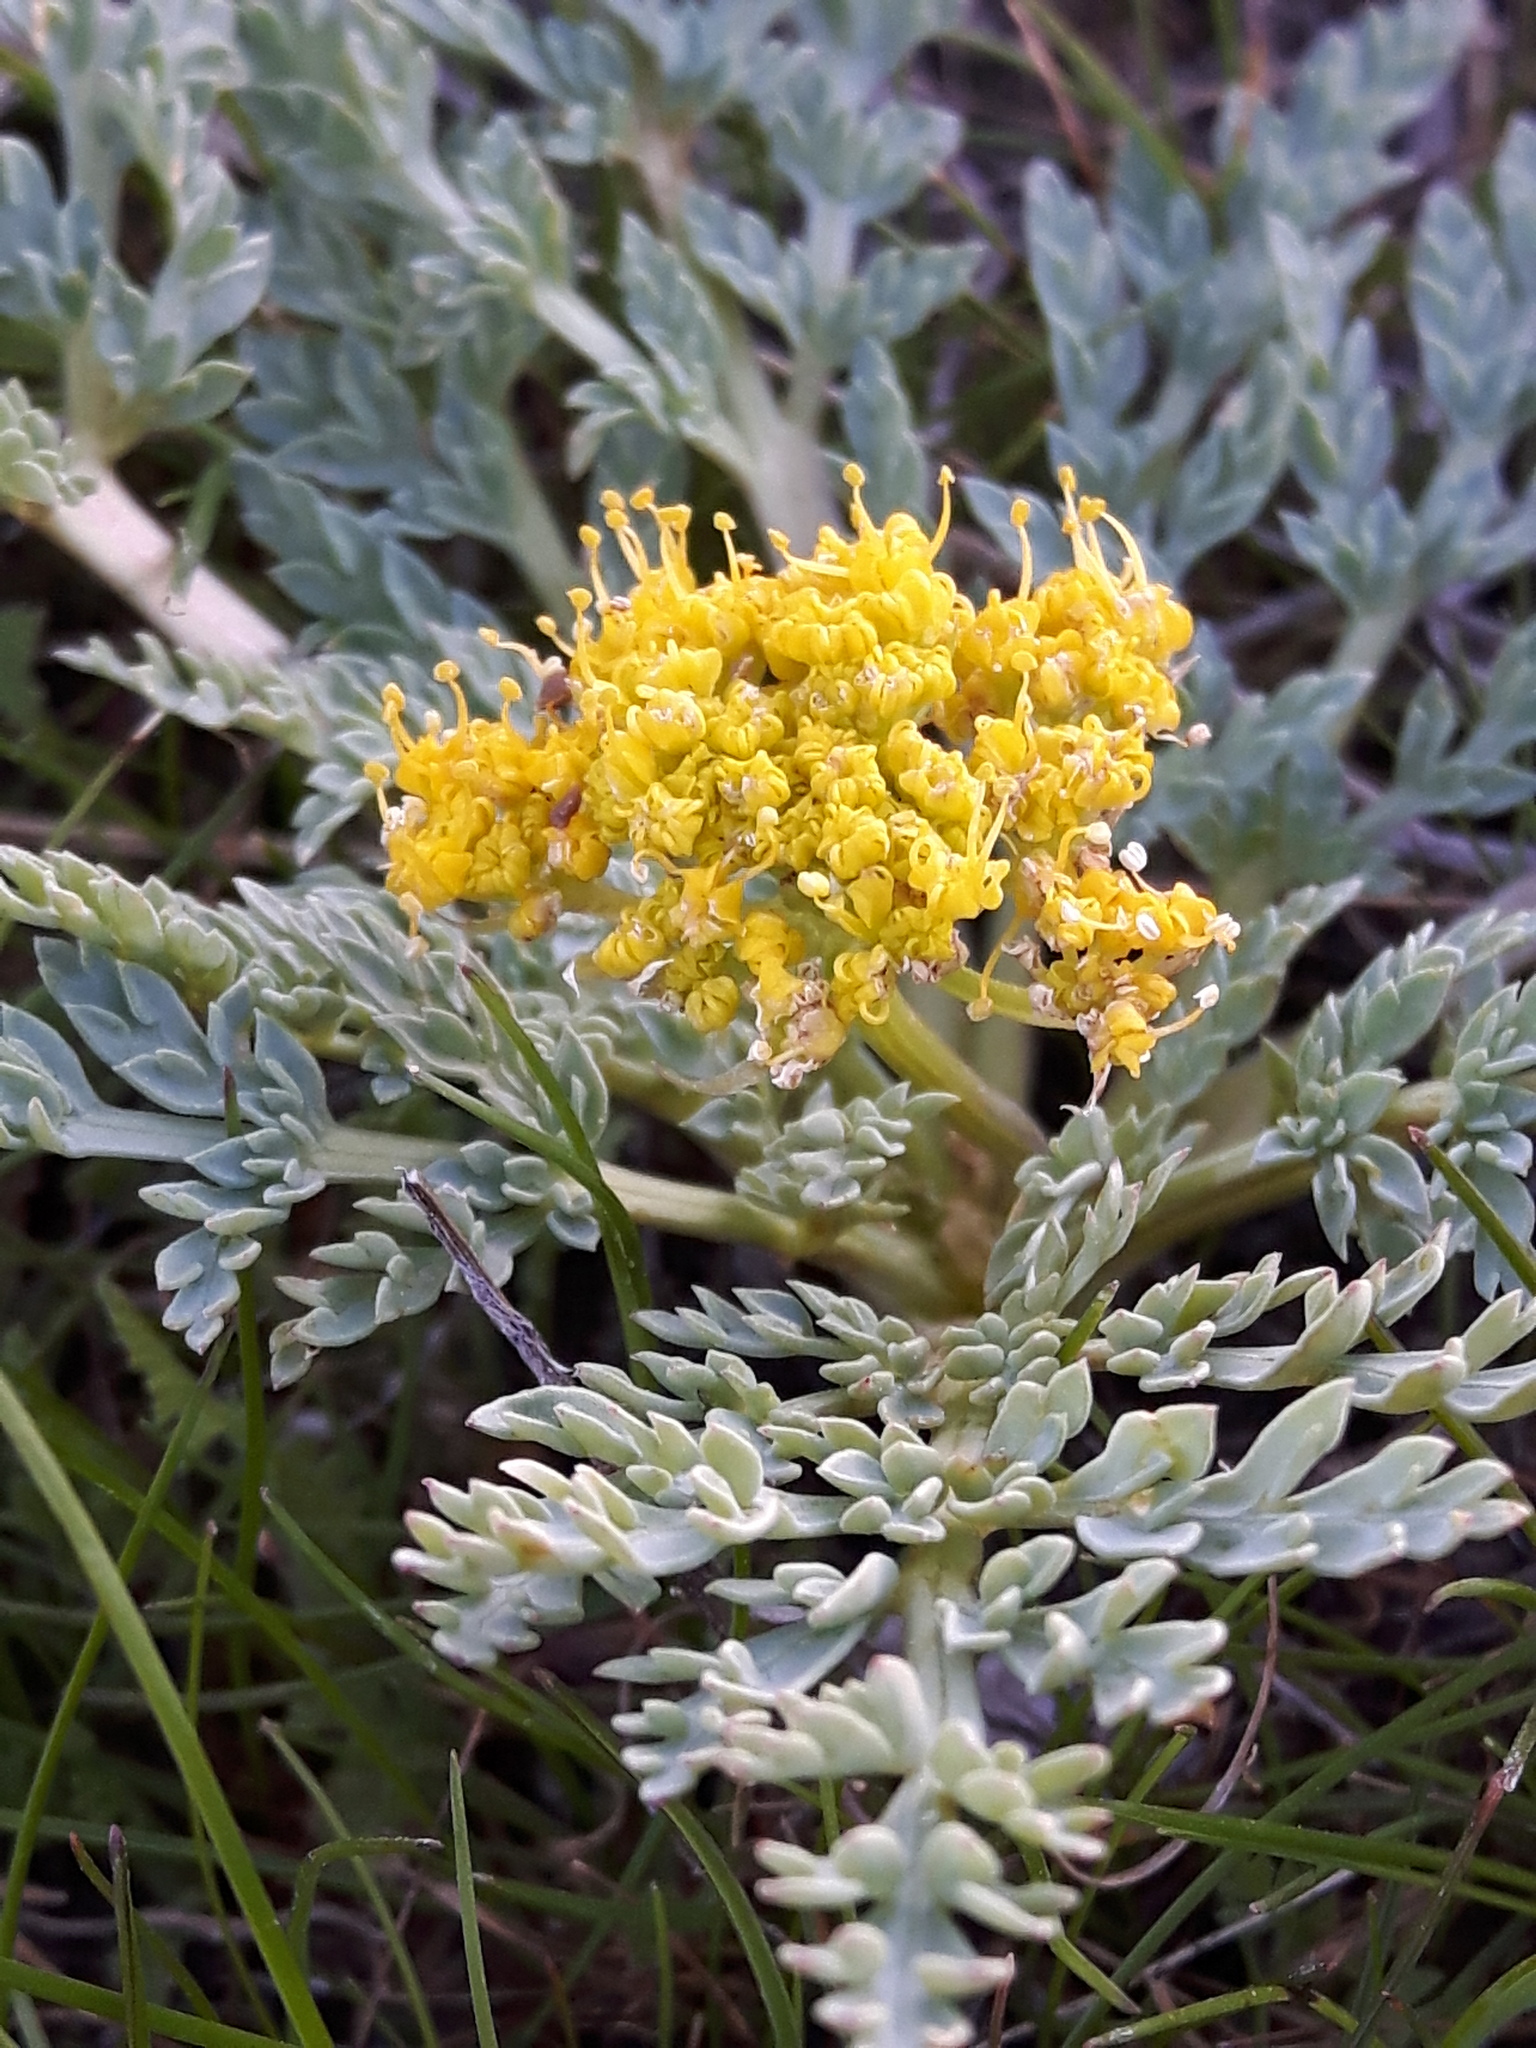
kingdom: Plantae
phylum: Tracheophyta
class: Magnoliopsida
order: Apiales
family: Apiaceae
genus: Aulospermum
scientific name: Aulospermum longipes
